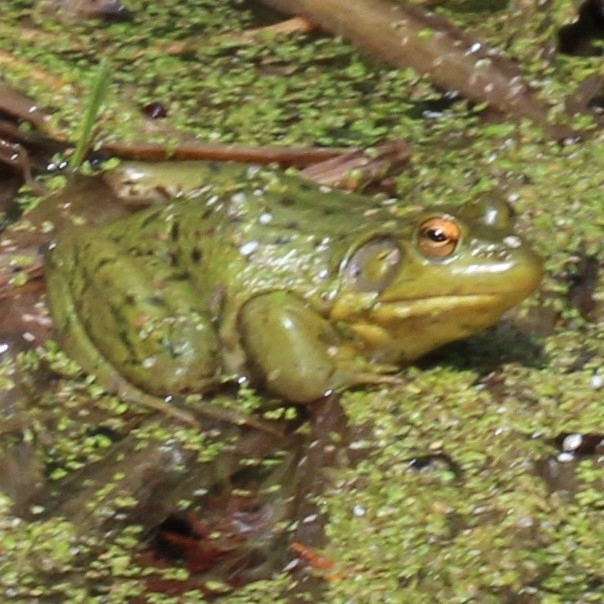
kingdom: Animalia
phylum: Chordata
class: Amphibia
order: Anura
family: Ranidae
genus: Lithobates
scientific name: Lithobates clamitans
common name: Green frog
